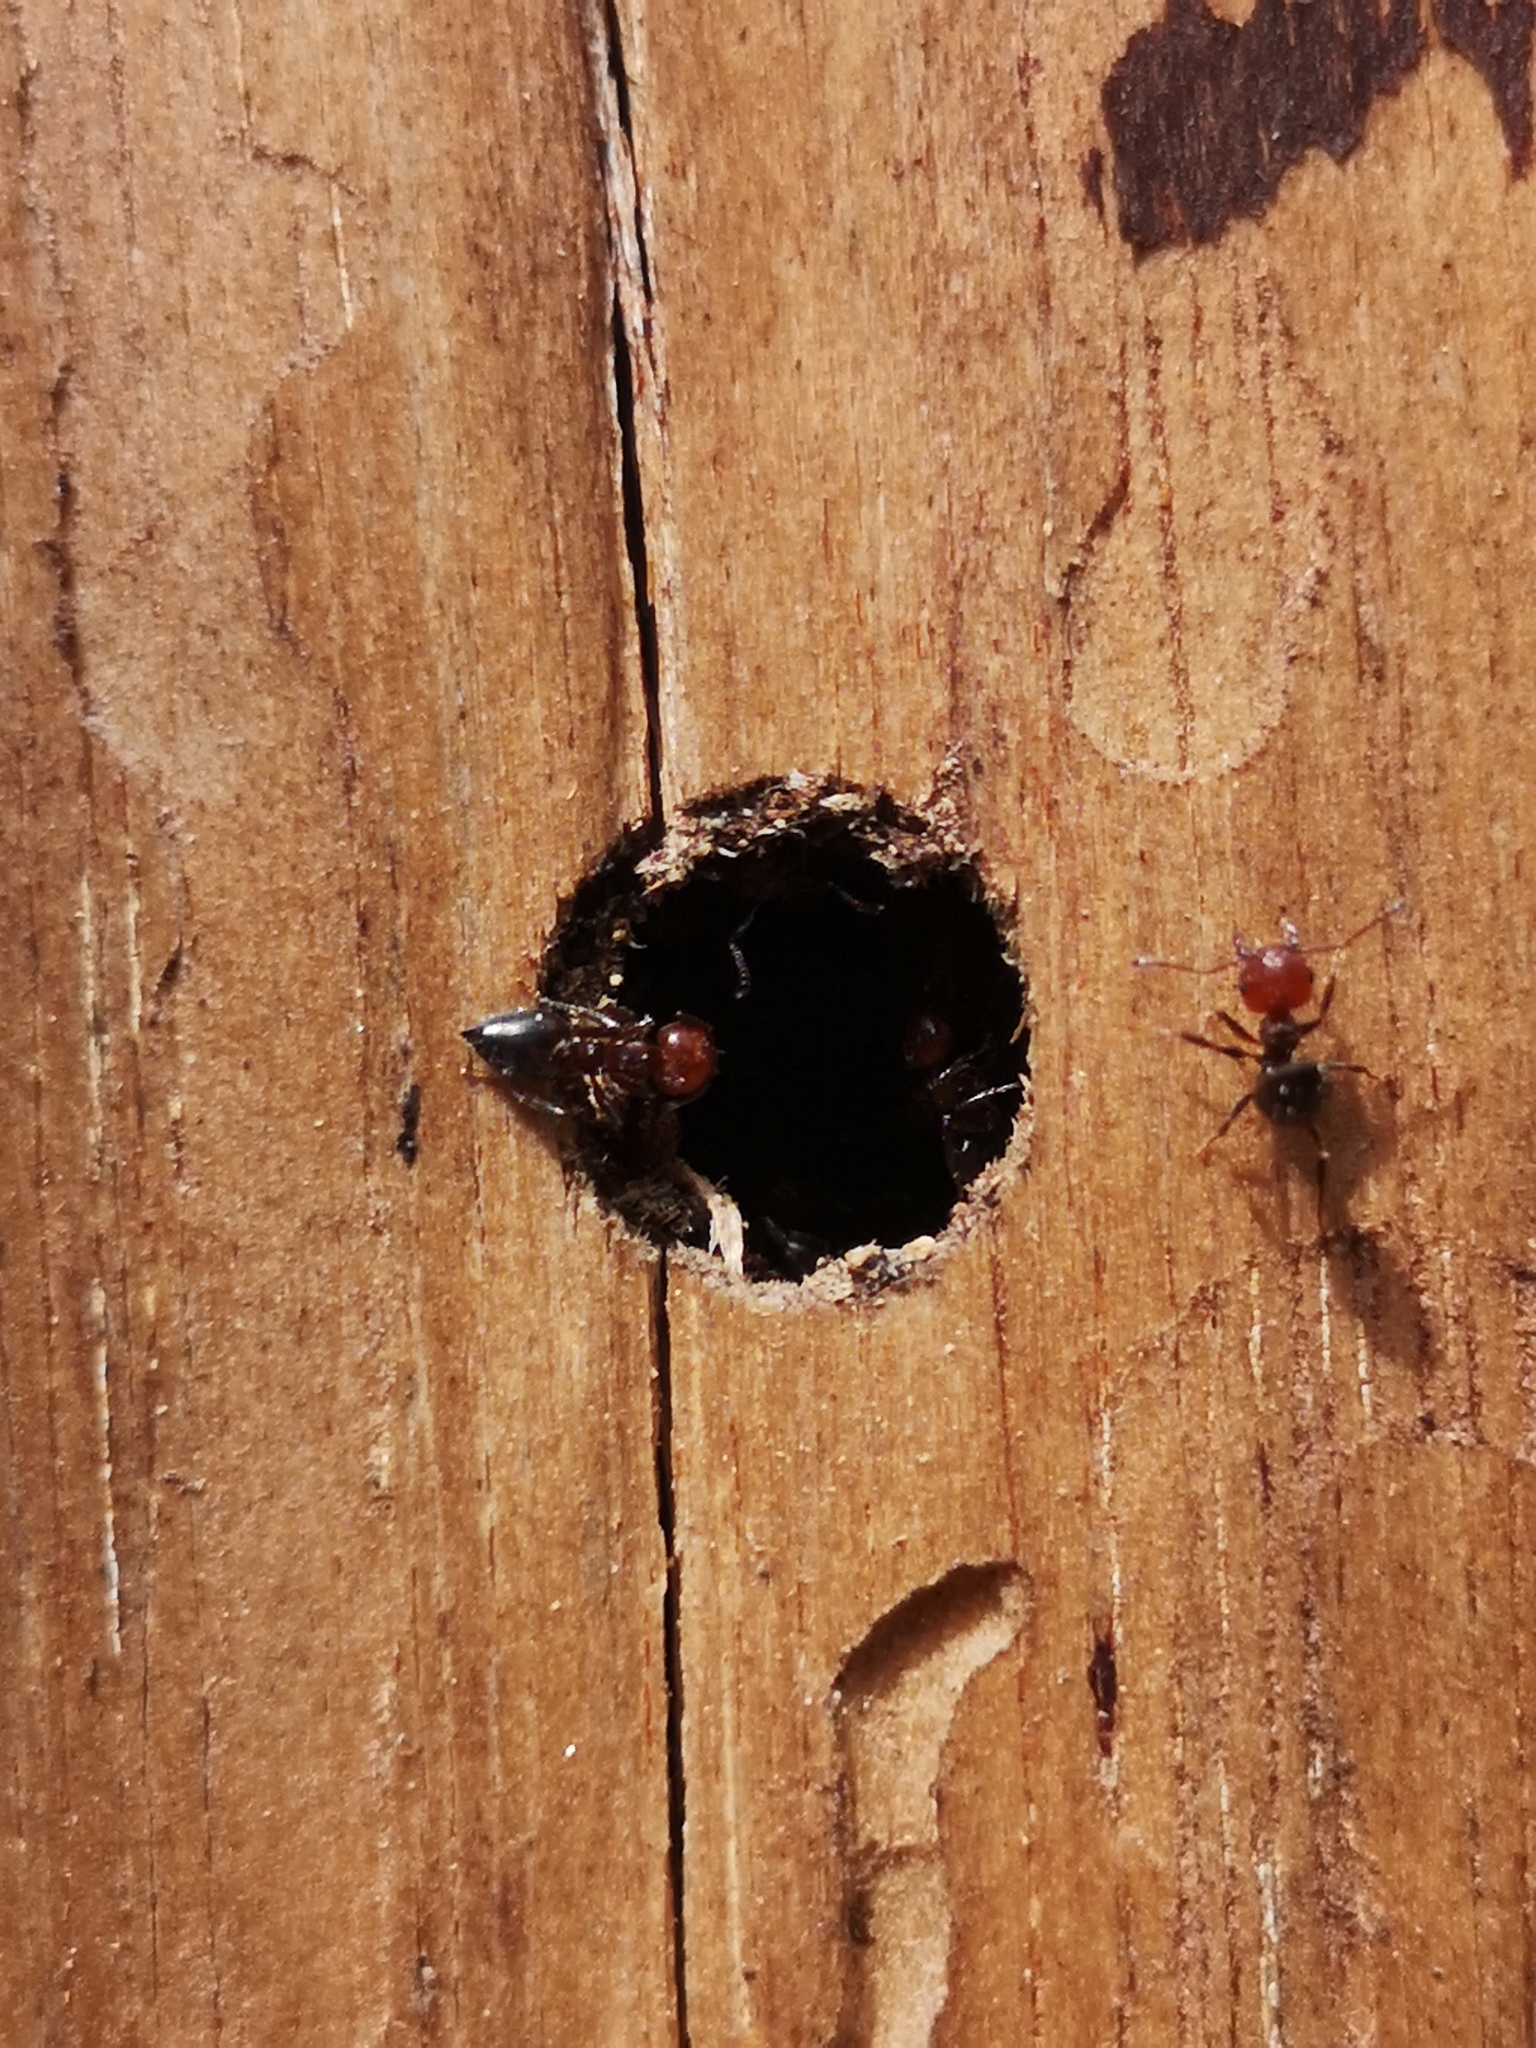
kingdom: Animalia
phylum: Arthropoda
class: Insecta
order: Hymenoptera
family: Formicidae
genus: Crematogaster
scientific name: Crematogaster scutellaris
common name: Fourmi du liège
